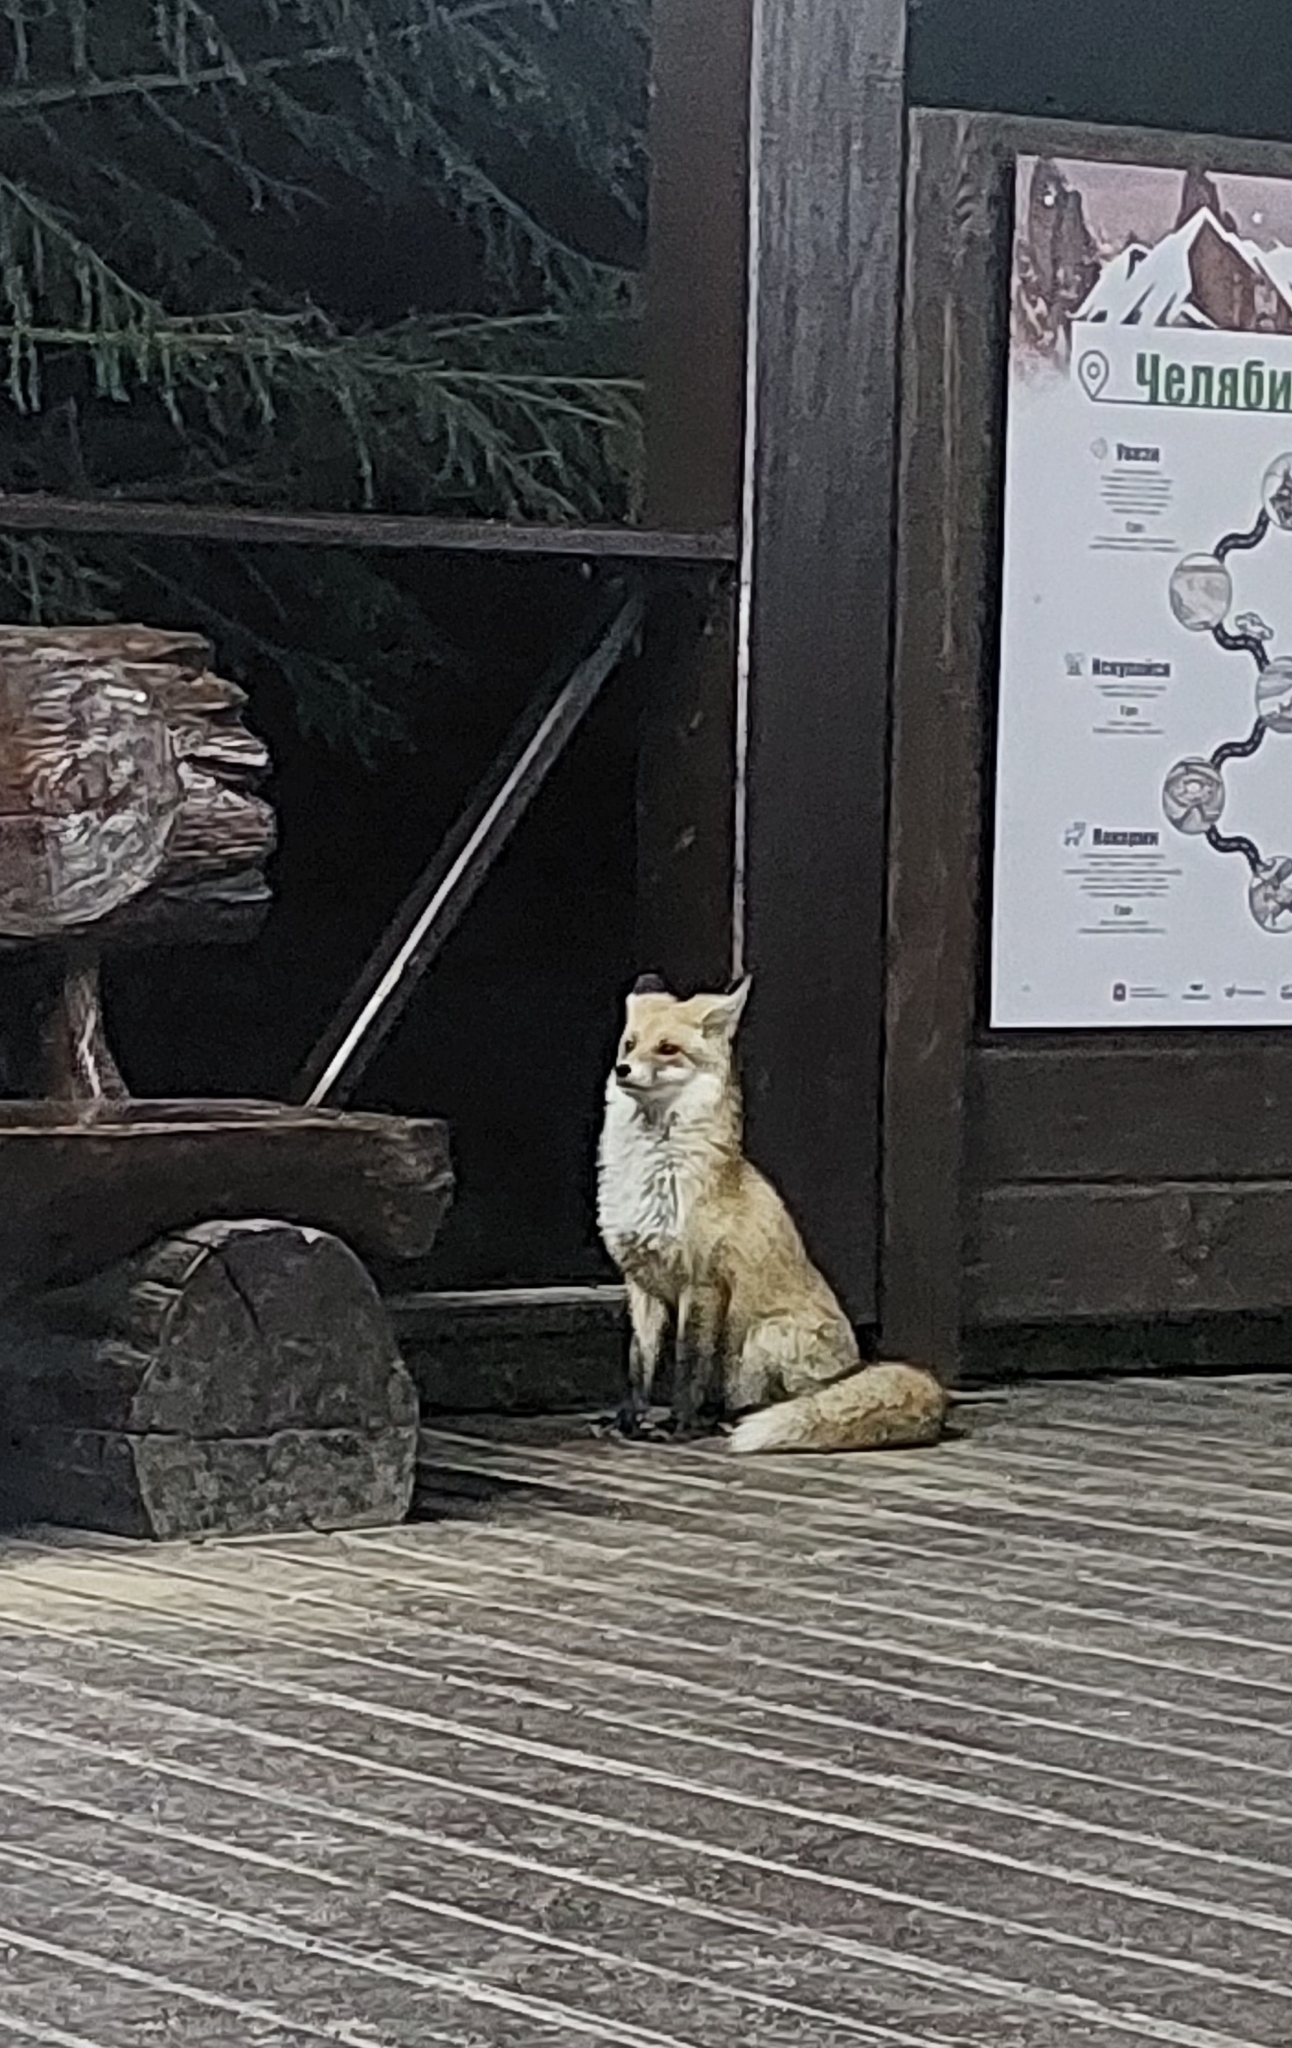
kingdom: Animalia
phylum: Chordata
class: Mammalia
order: Carnivora
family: Canidae
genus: Vulpes
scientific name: Vulpes vulpes
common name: Red fox
